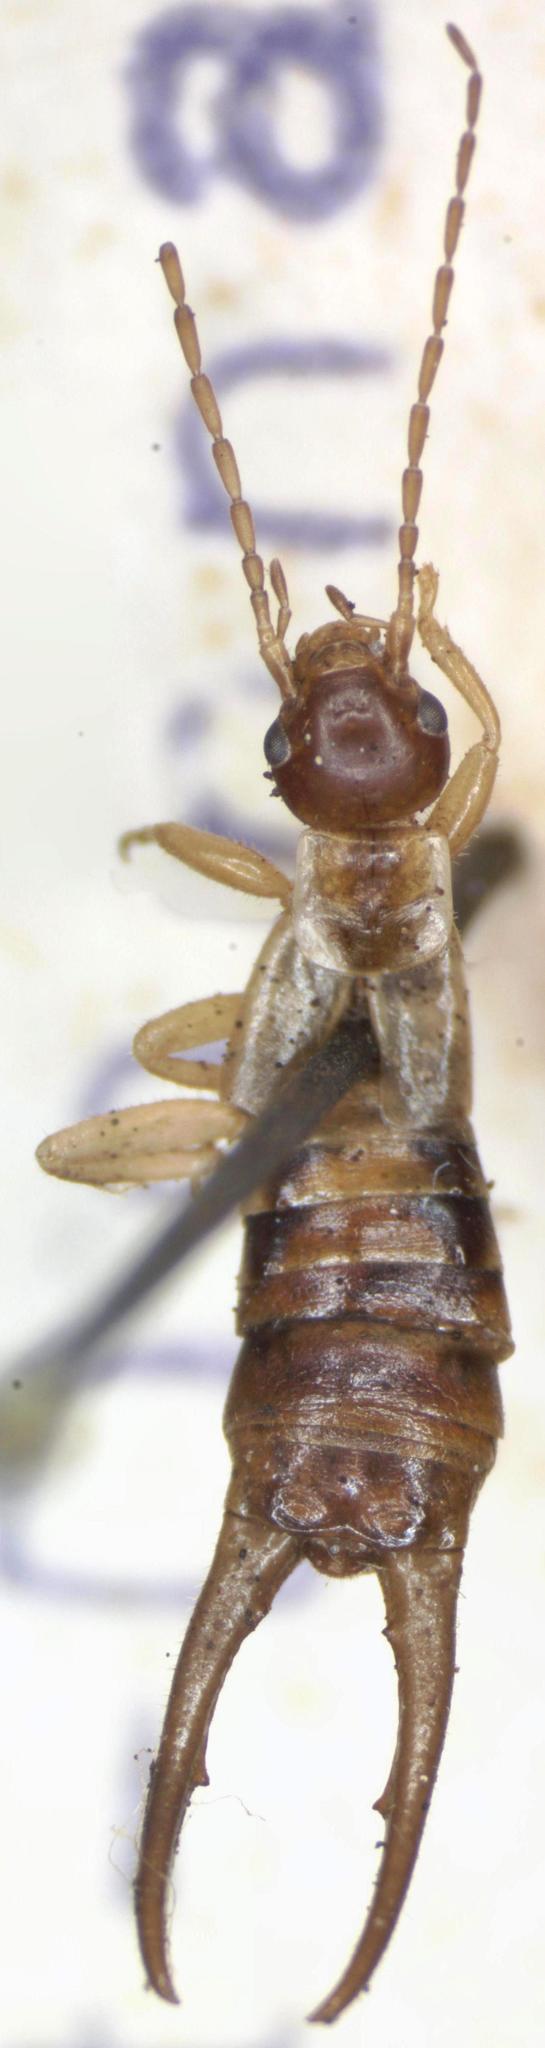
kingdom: Animalia
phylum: Arthropoda
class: Insecta
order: Dermaptera
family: Forficulidae
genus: Apterygida
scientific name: Apterygida albipennis
